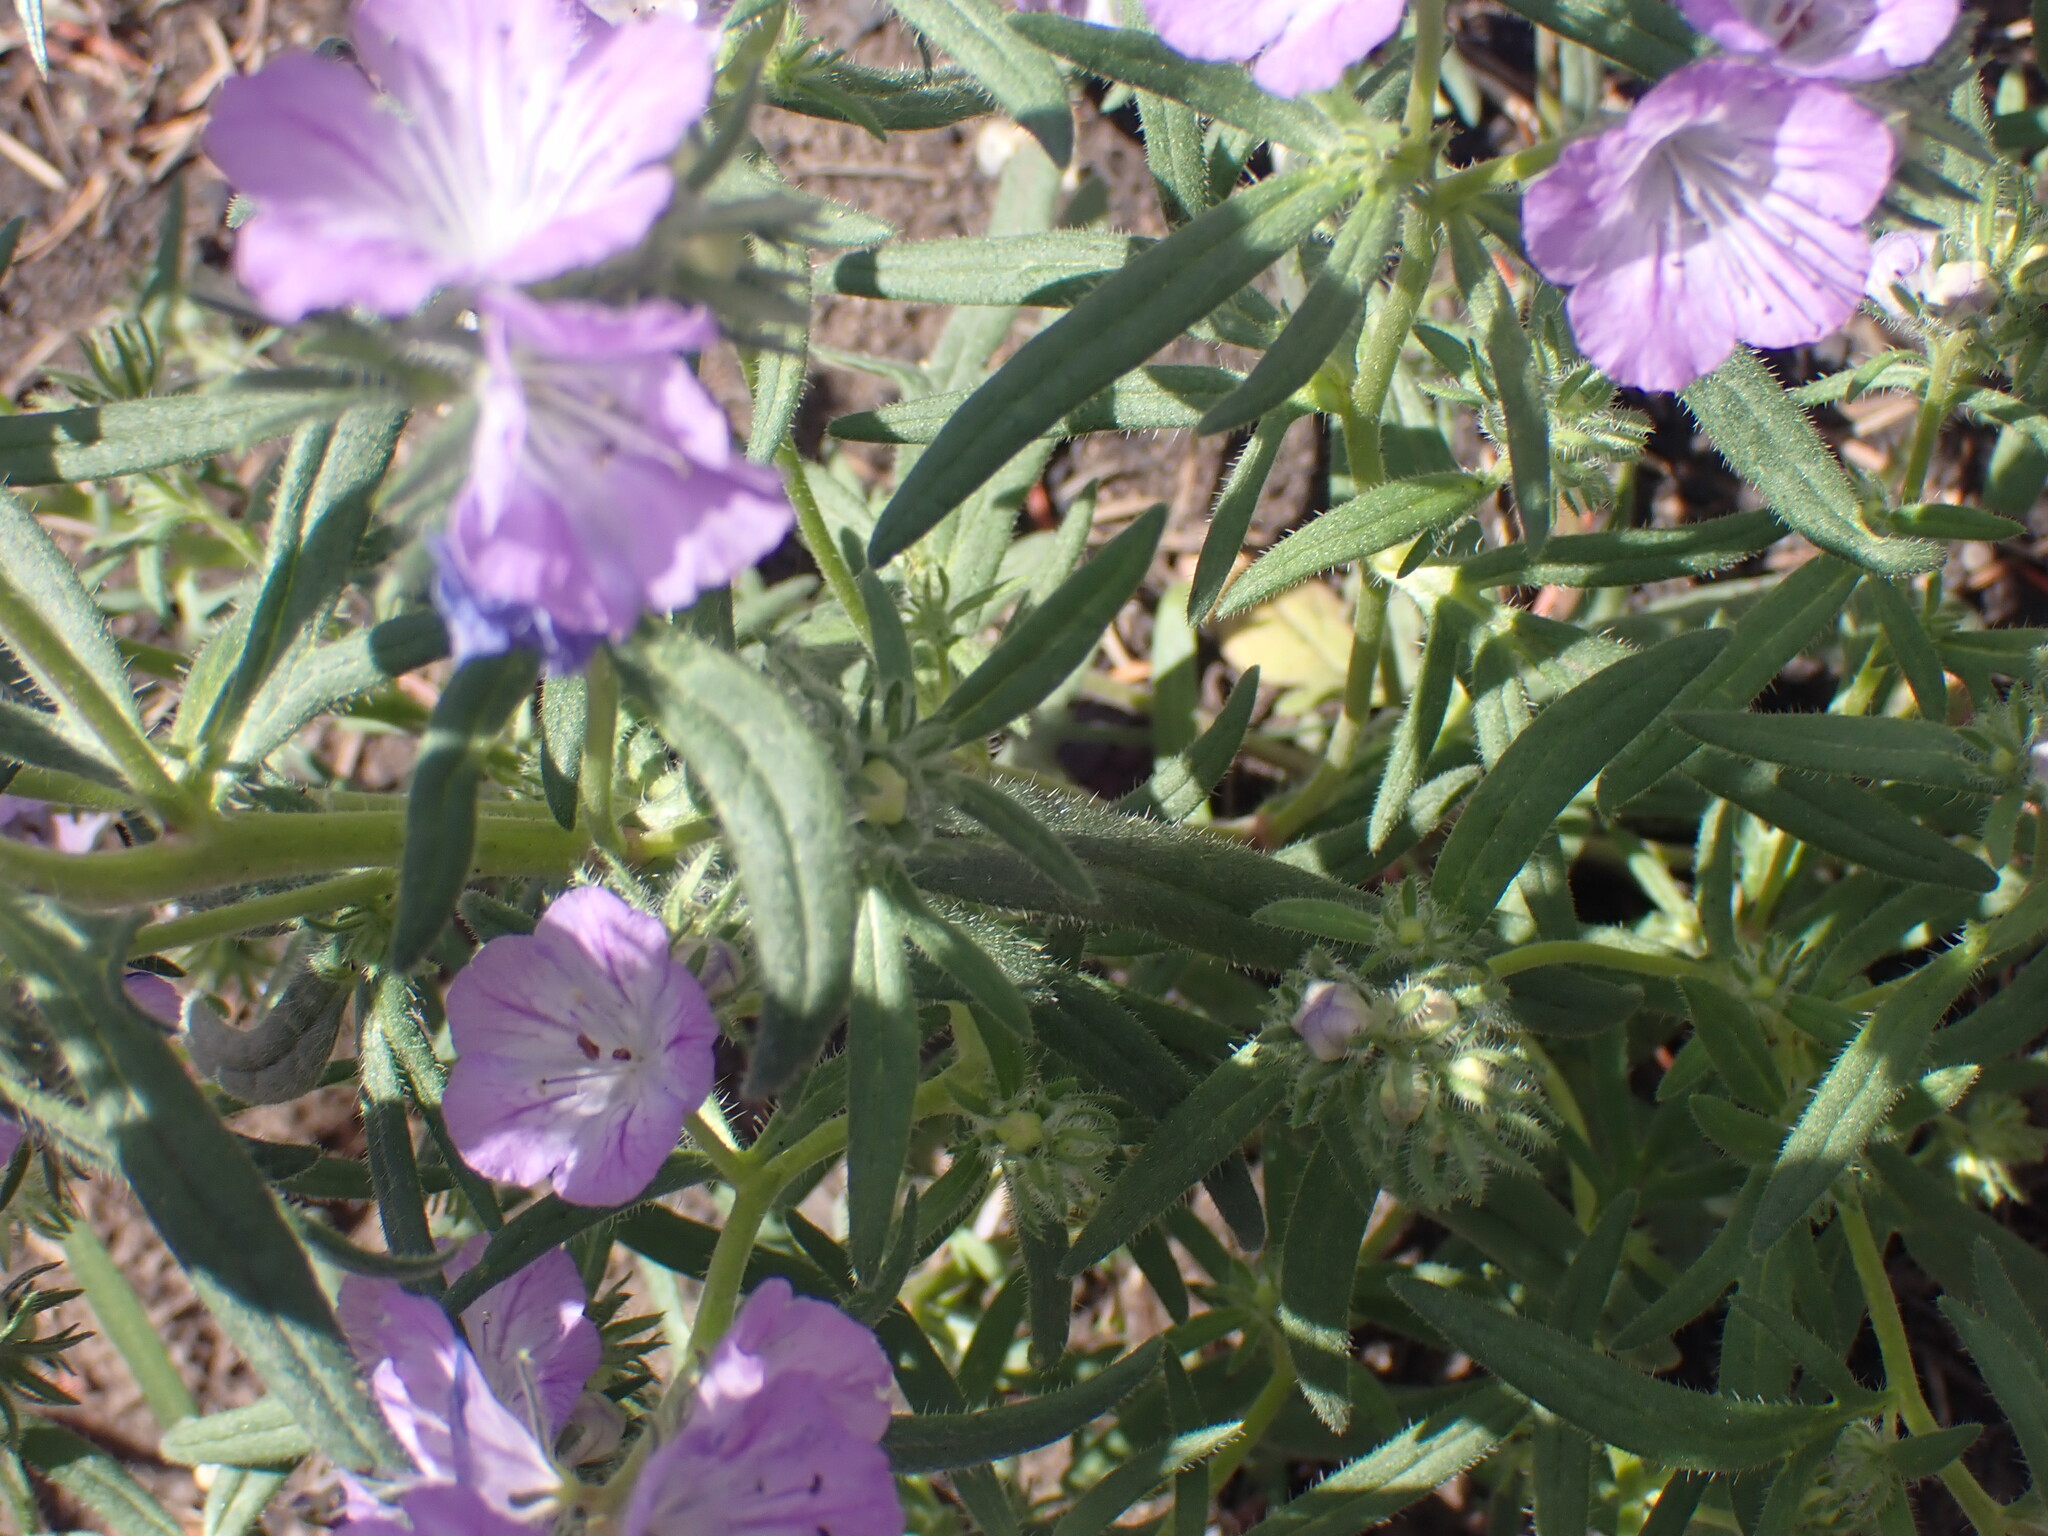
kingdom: Plantae
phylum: Tracheophyta
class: Magnoliopsida
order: Boraginales
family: Hydrophyllaceae
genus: Phacelia
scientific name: Phacelia linearis
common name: Linear-leaved phacelia
